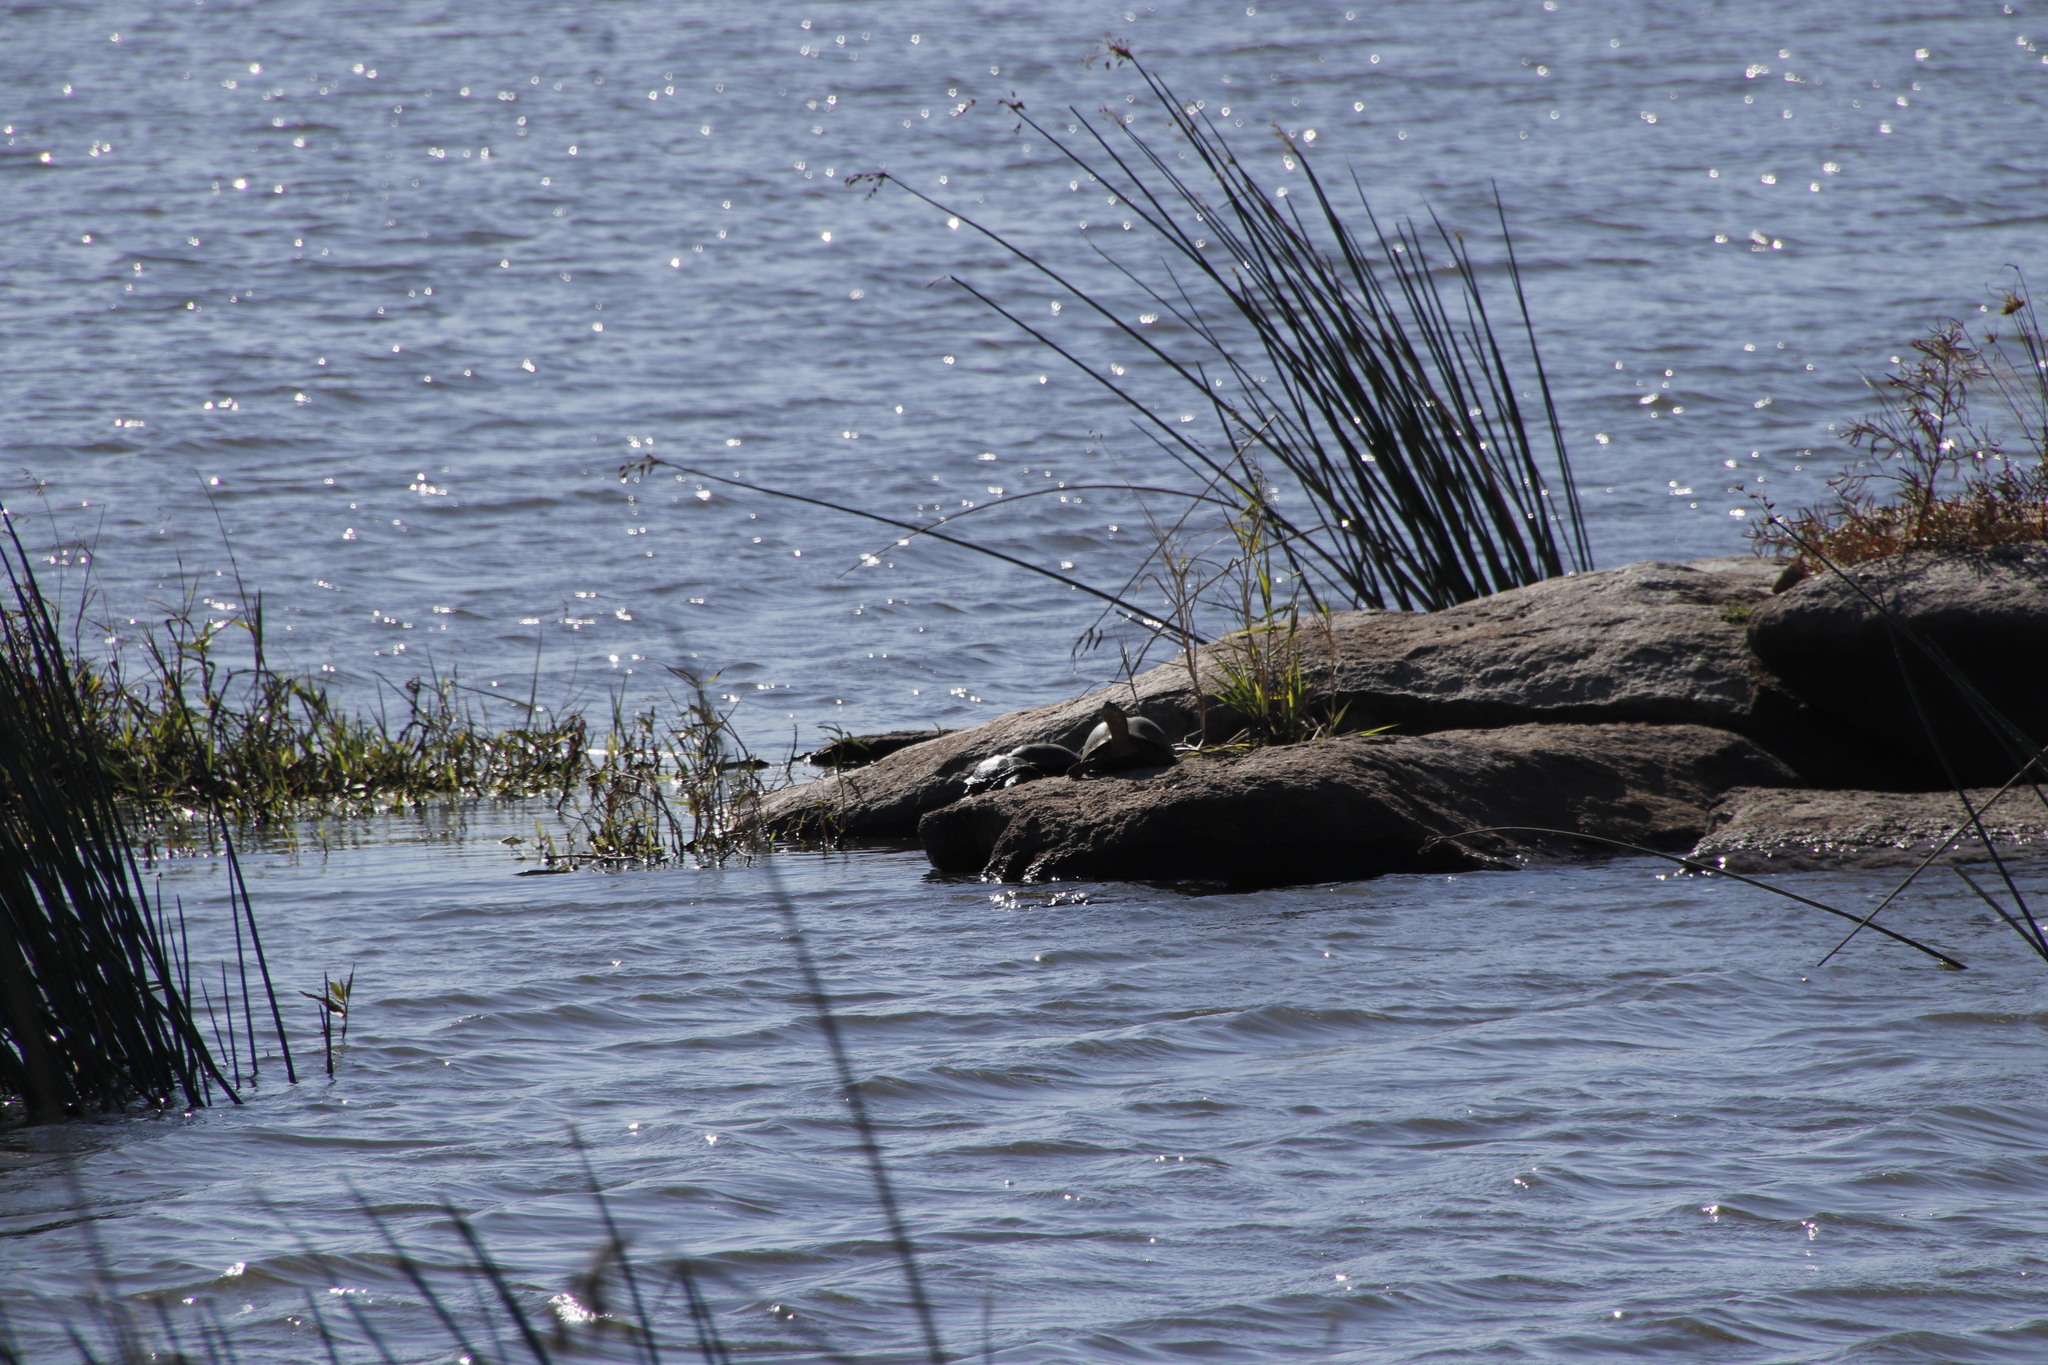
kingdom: Animalia
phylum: Chordata
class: Testudines
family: Pelomedusidae
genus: Pelusios
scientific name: Pelusios sinuatus
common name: Serrated hinged terrapin
